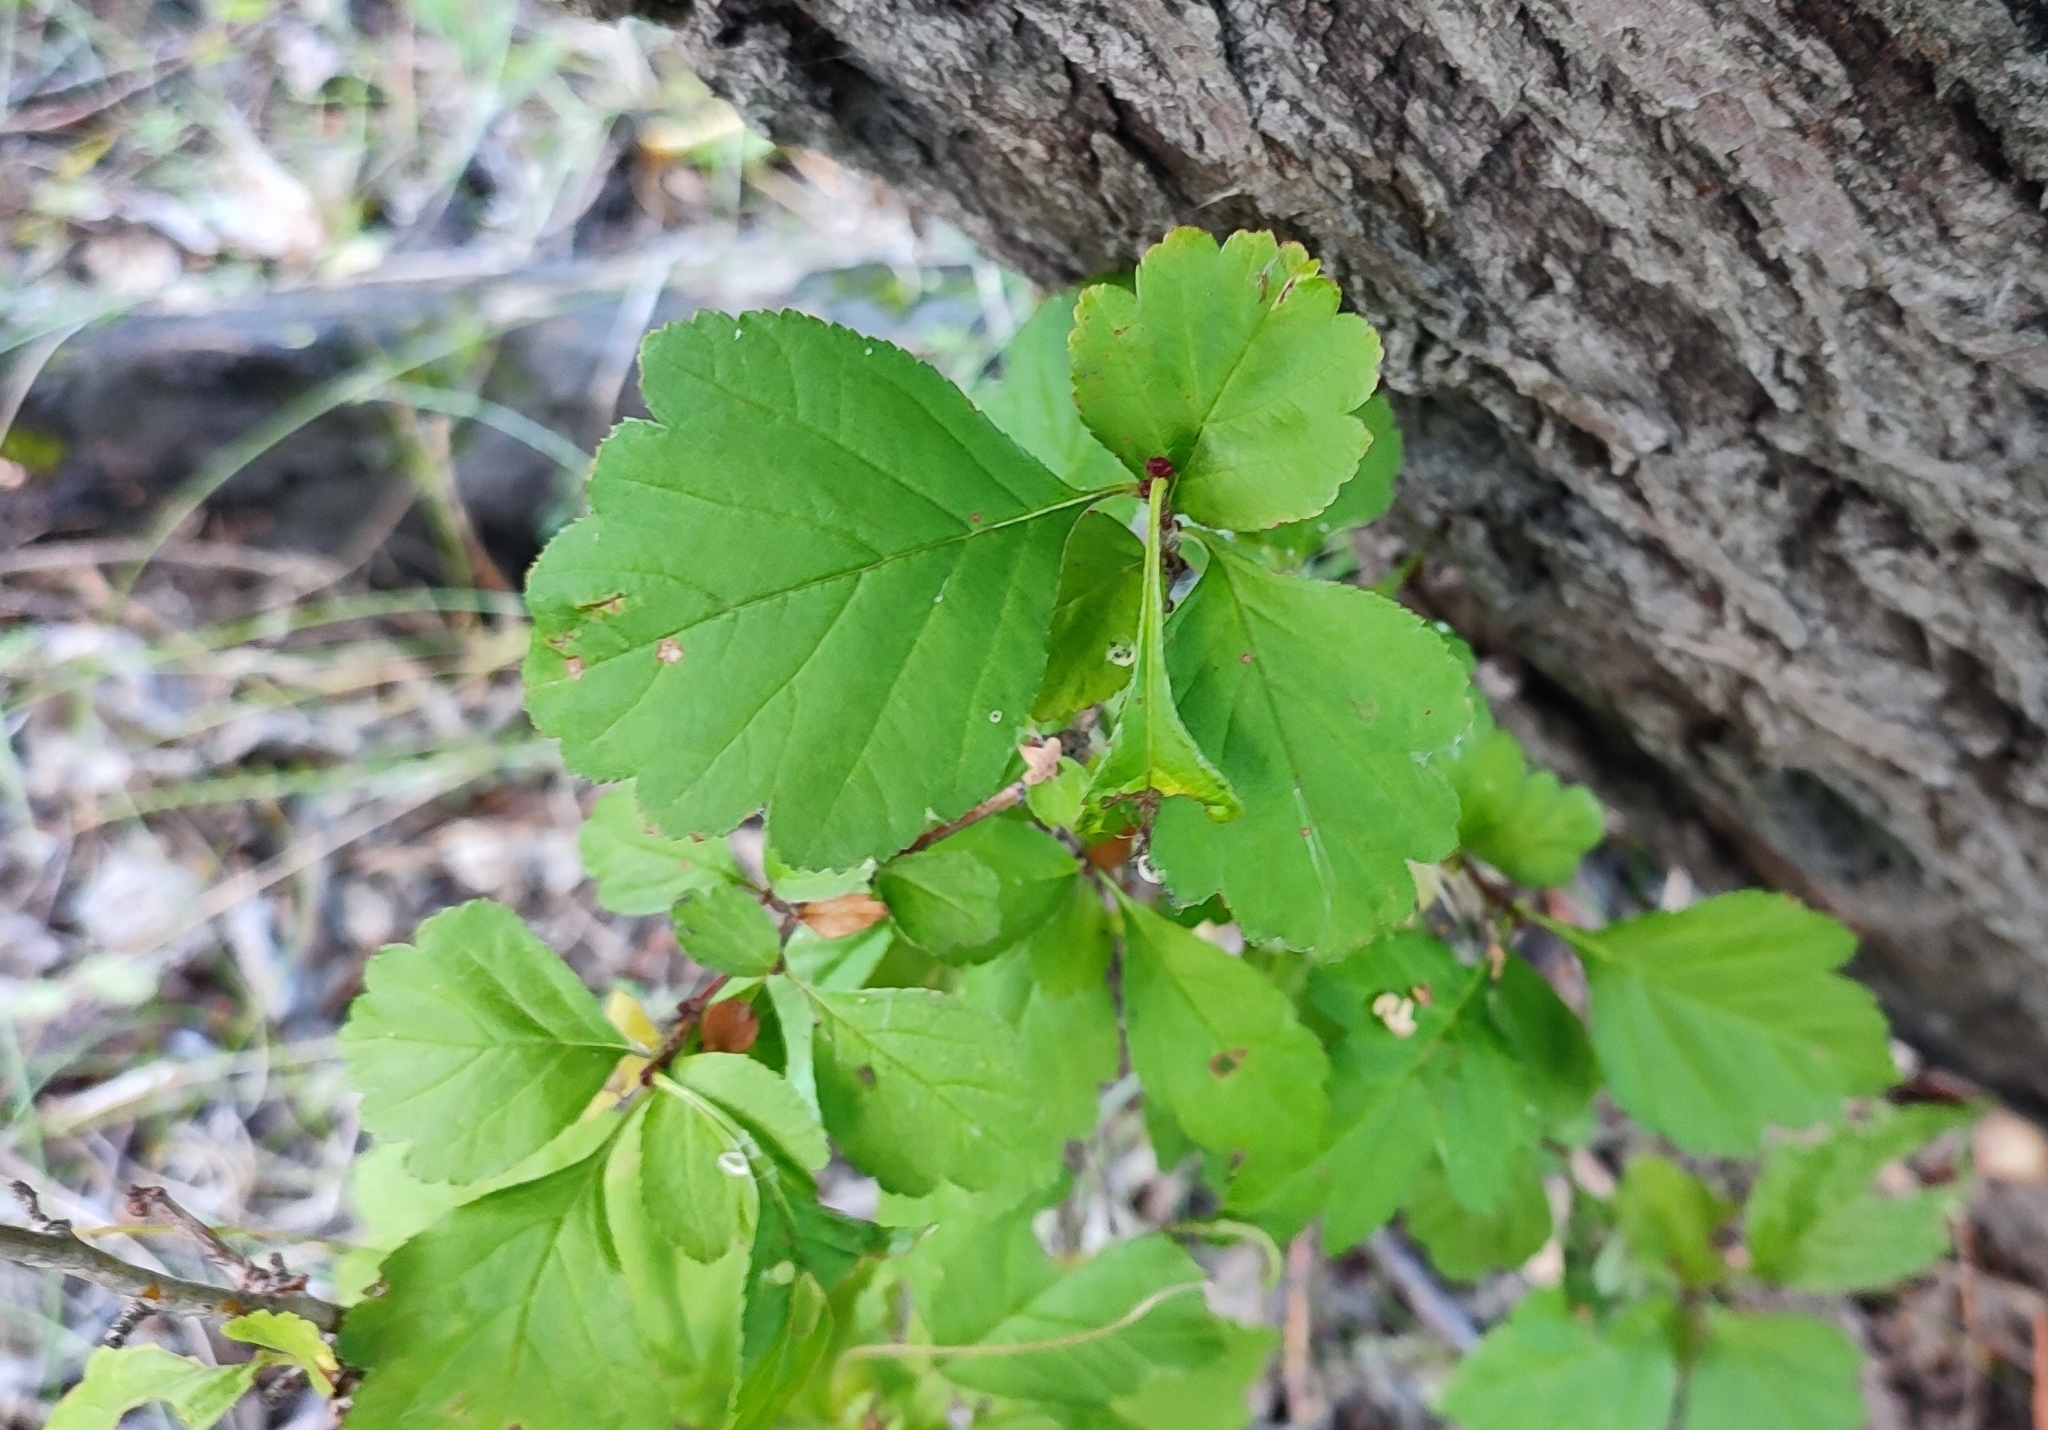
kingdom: Plantae
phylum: Tracheophyta
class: Magnoliopsida
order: Rosales
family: Rosaceae
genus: Crataegus
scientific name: Crataegus sanguinea
